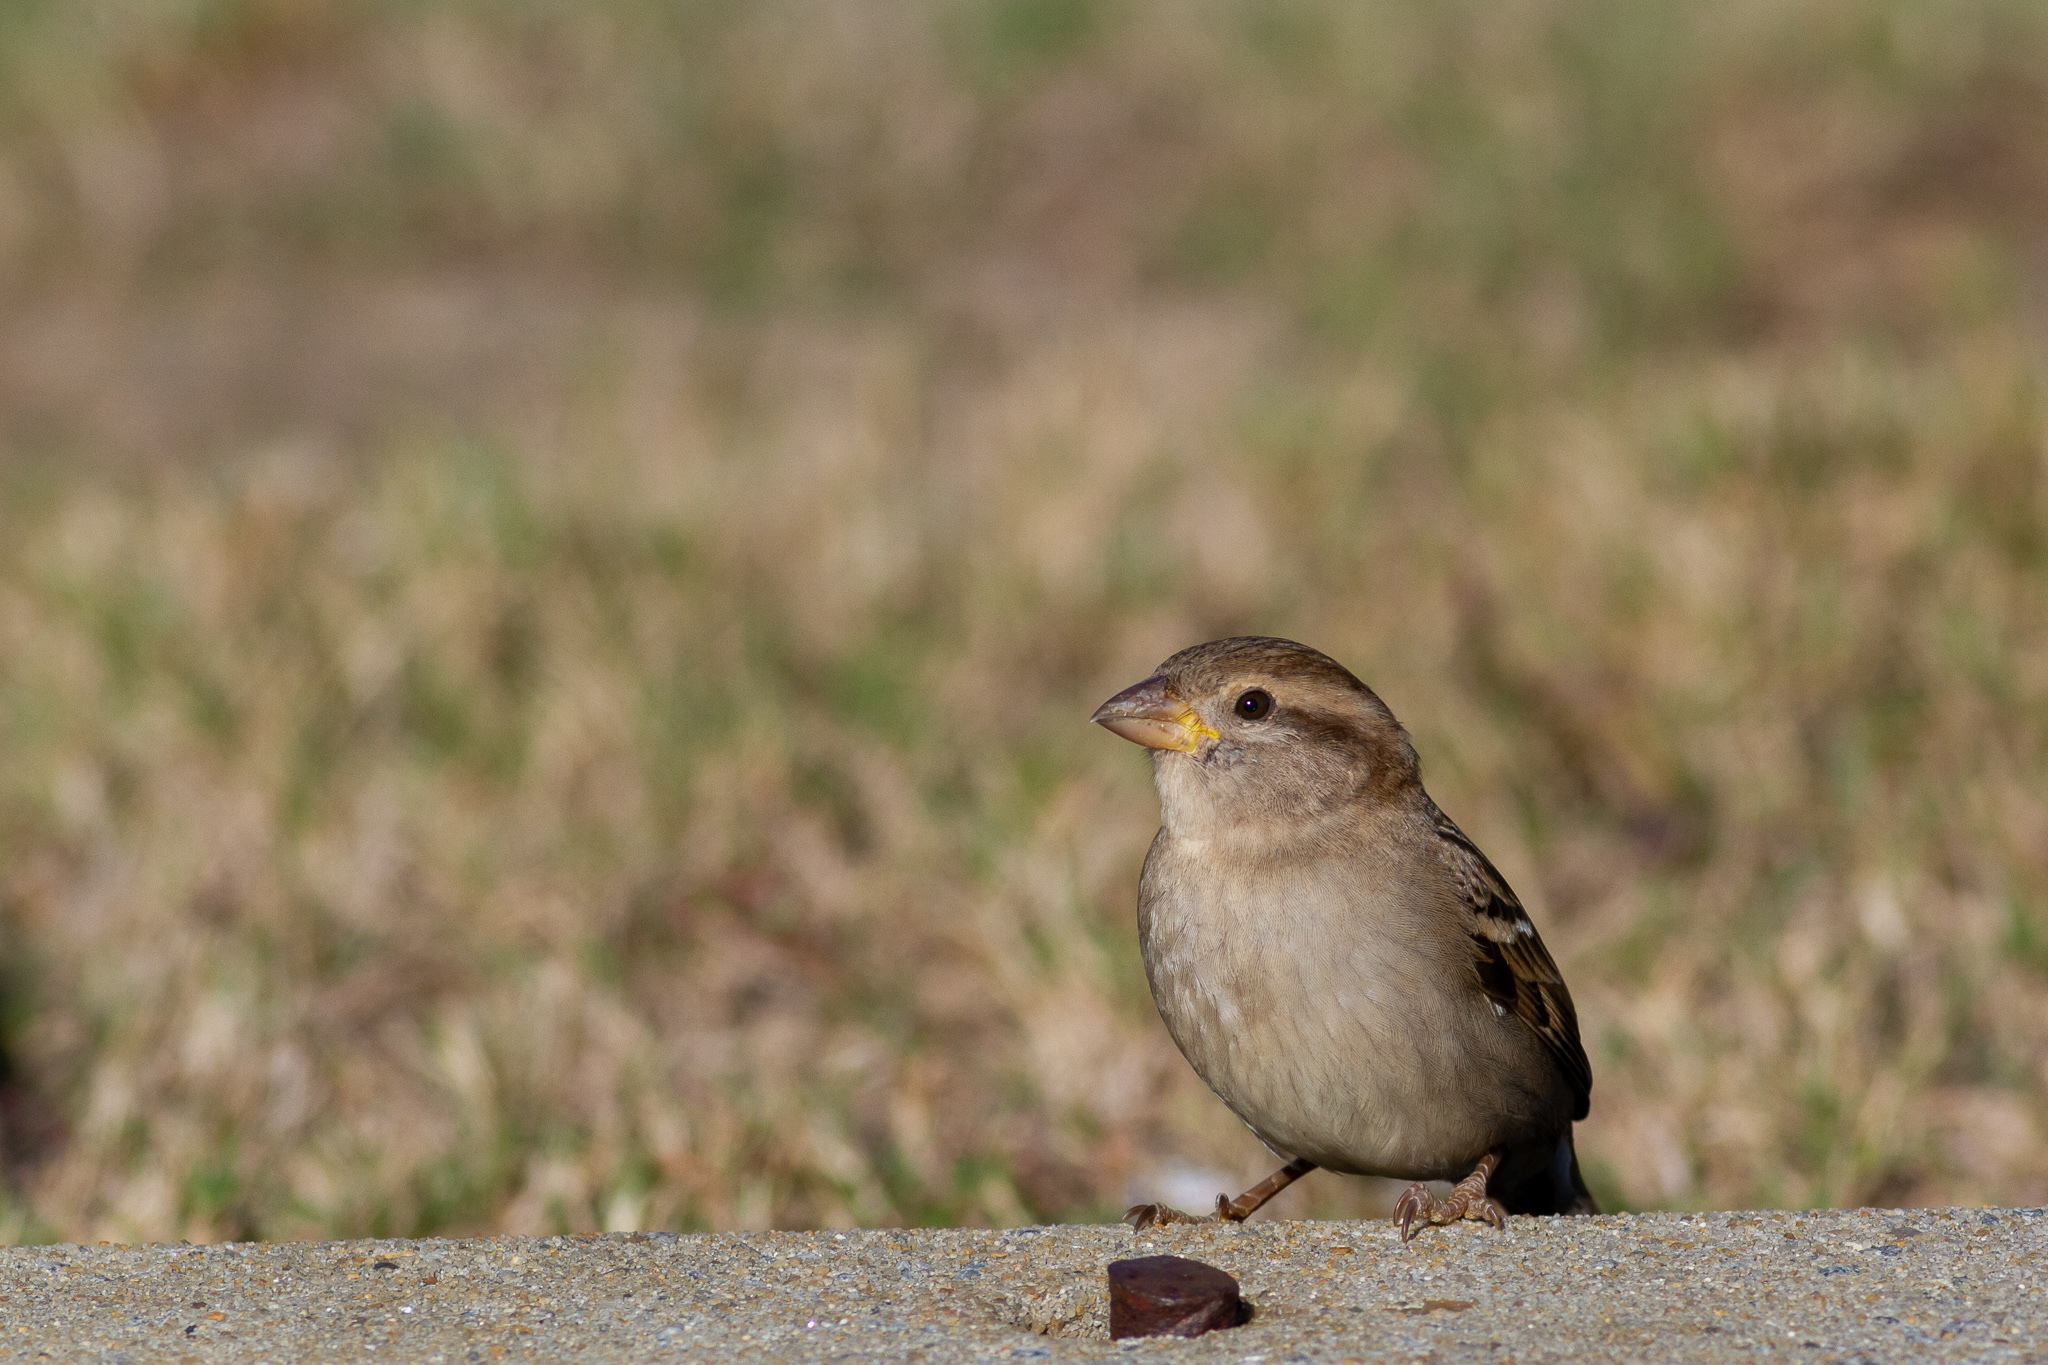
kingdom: Animalia
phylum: Chordata
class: Aves
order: Passeriformes
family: Passeridae
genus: Passer
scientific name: Passer domesticus
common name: House sparrow
